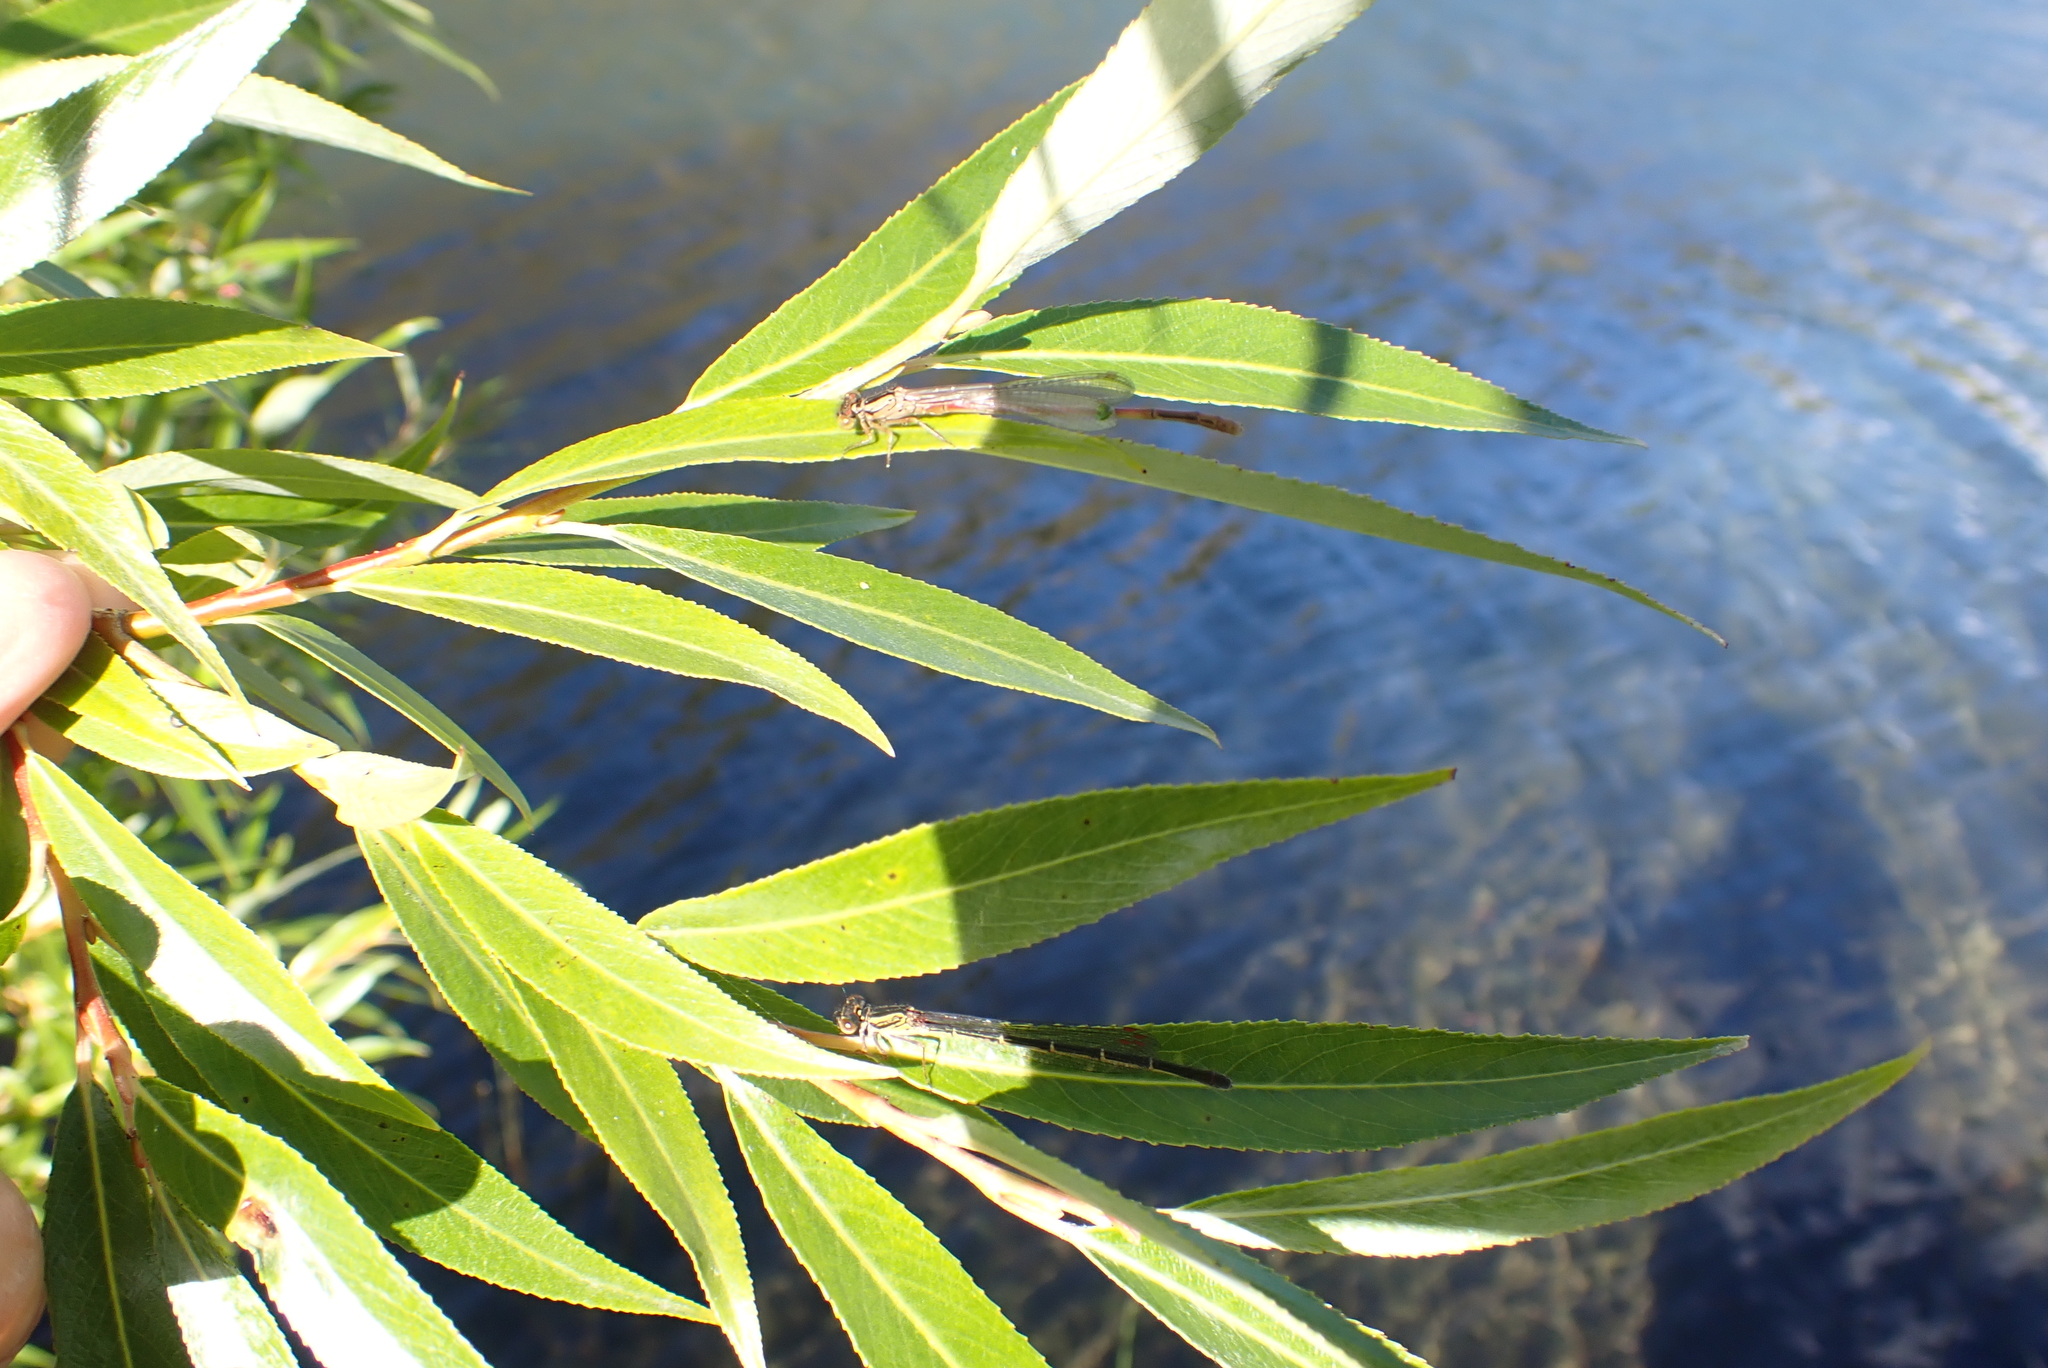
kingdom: Animalia
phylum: Arthropoda
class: Insecta
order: Odonata
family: Coenagrionidae
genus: Xanthocnemis
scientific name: Xanthocnemis zealandica
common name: Common redcoat damselfly
